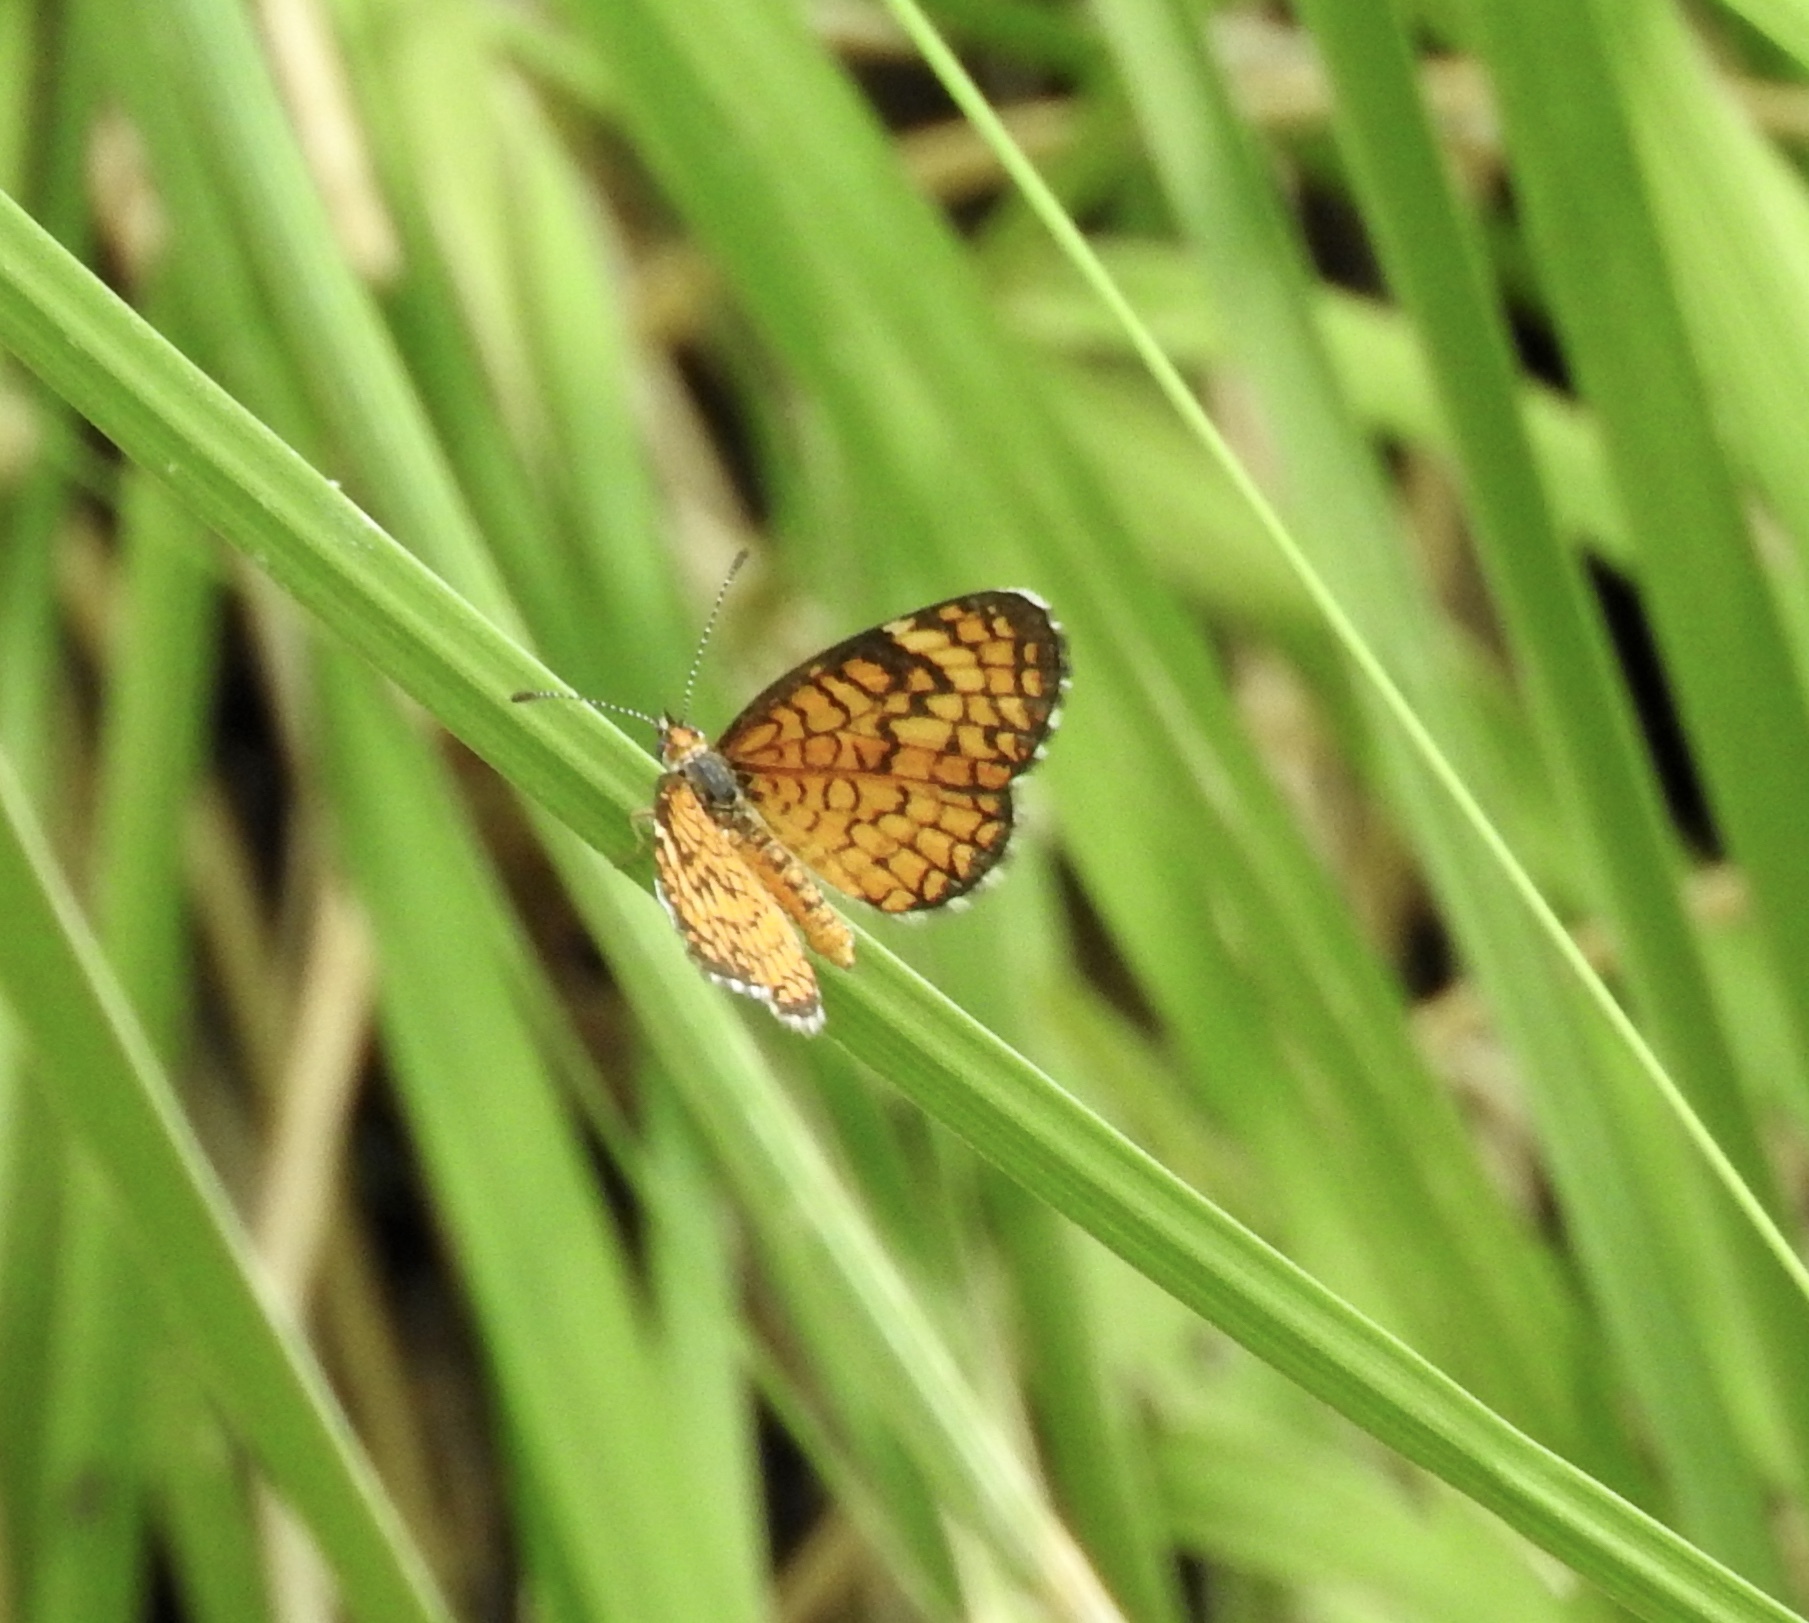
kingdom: Animalia
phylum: Arthropoda
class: Insecta
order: Lepidoptera
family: Nymphalidae
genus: Dymasia
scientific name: Dymasia dymas
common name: Tiny checkerspot
